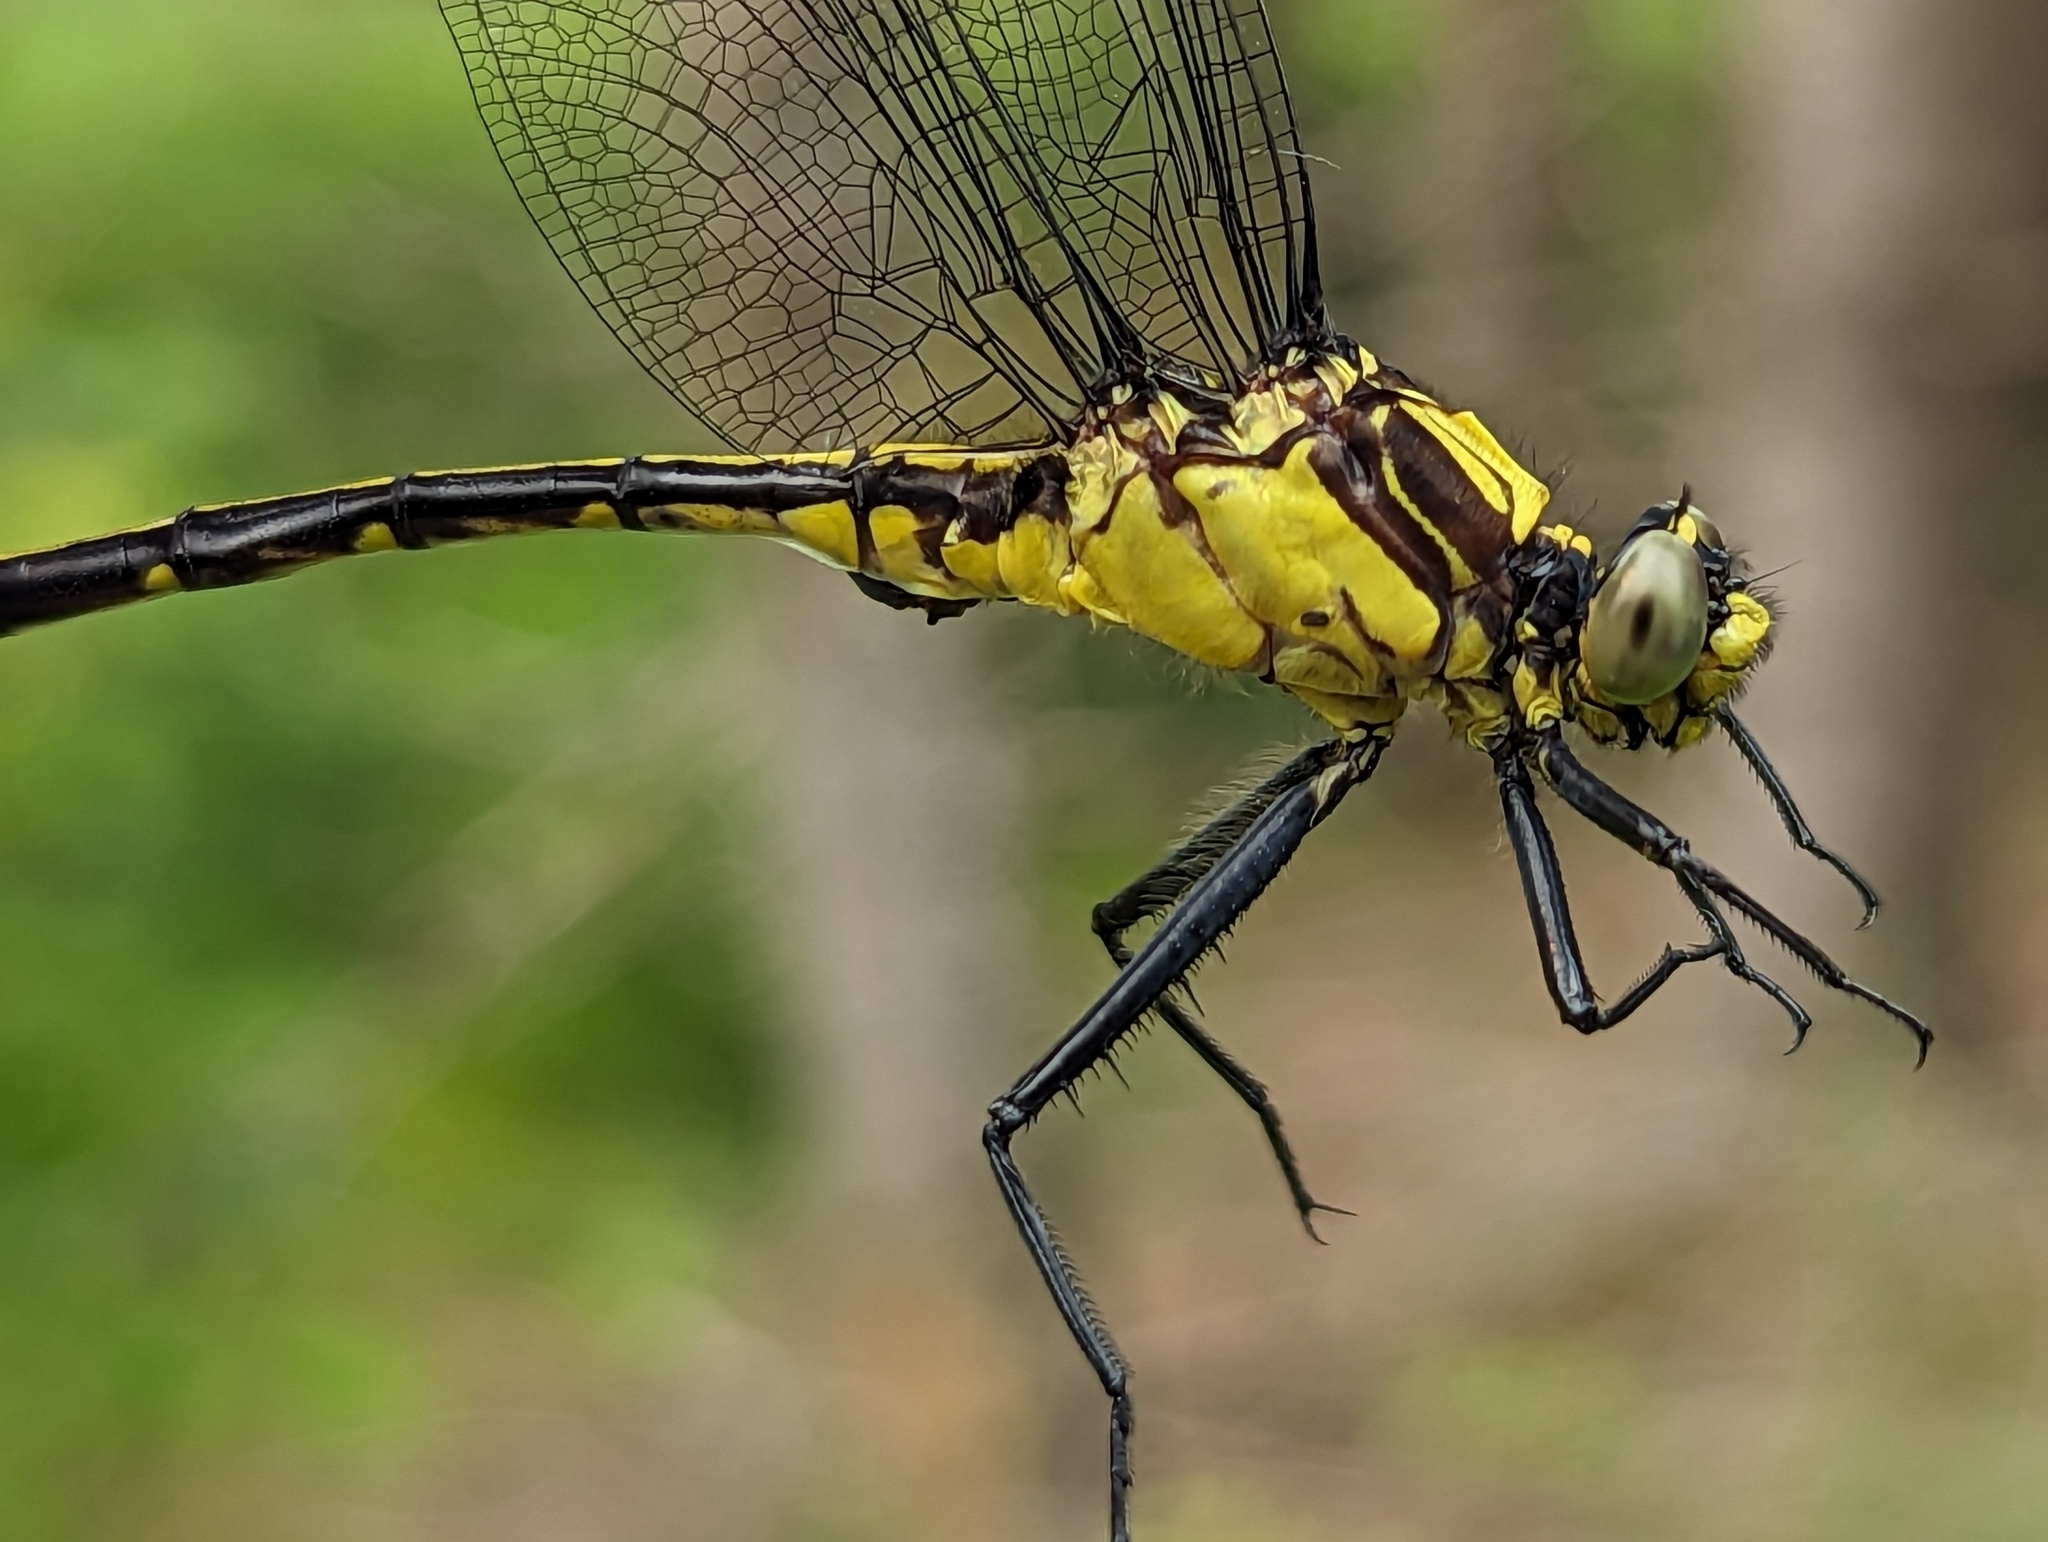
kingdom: Animalia
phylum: Arthropoda
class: Insecta
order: Odonata
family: Gomphidae
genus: Dromogomphus
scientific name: Dromogomphus spinosus
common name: Black-shouldered spinyleg
